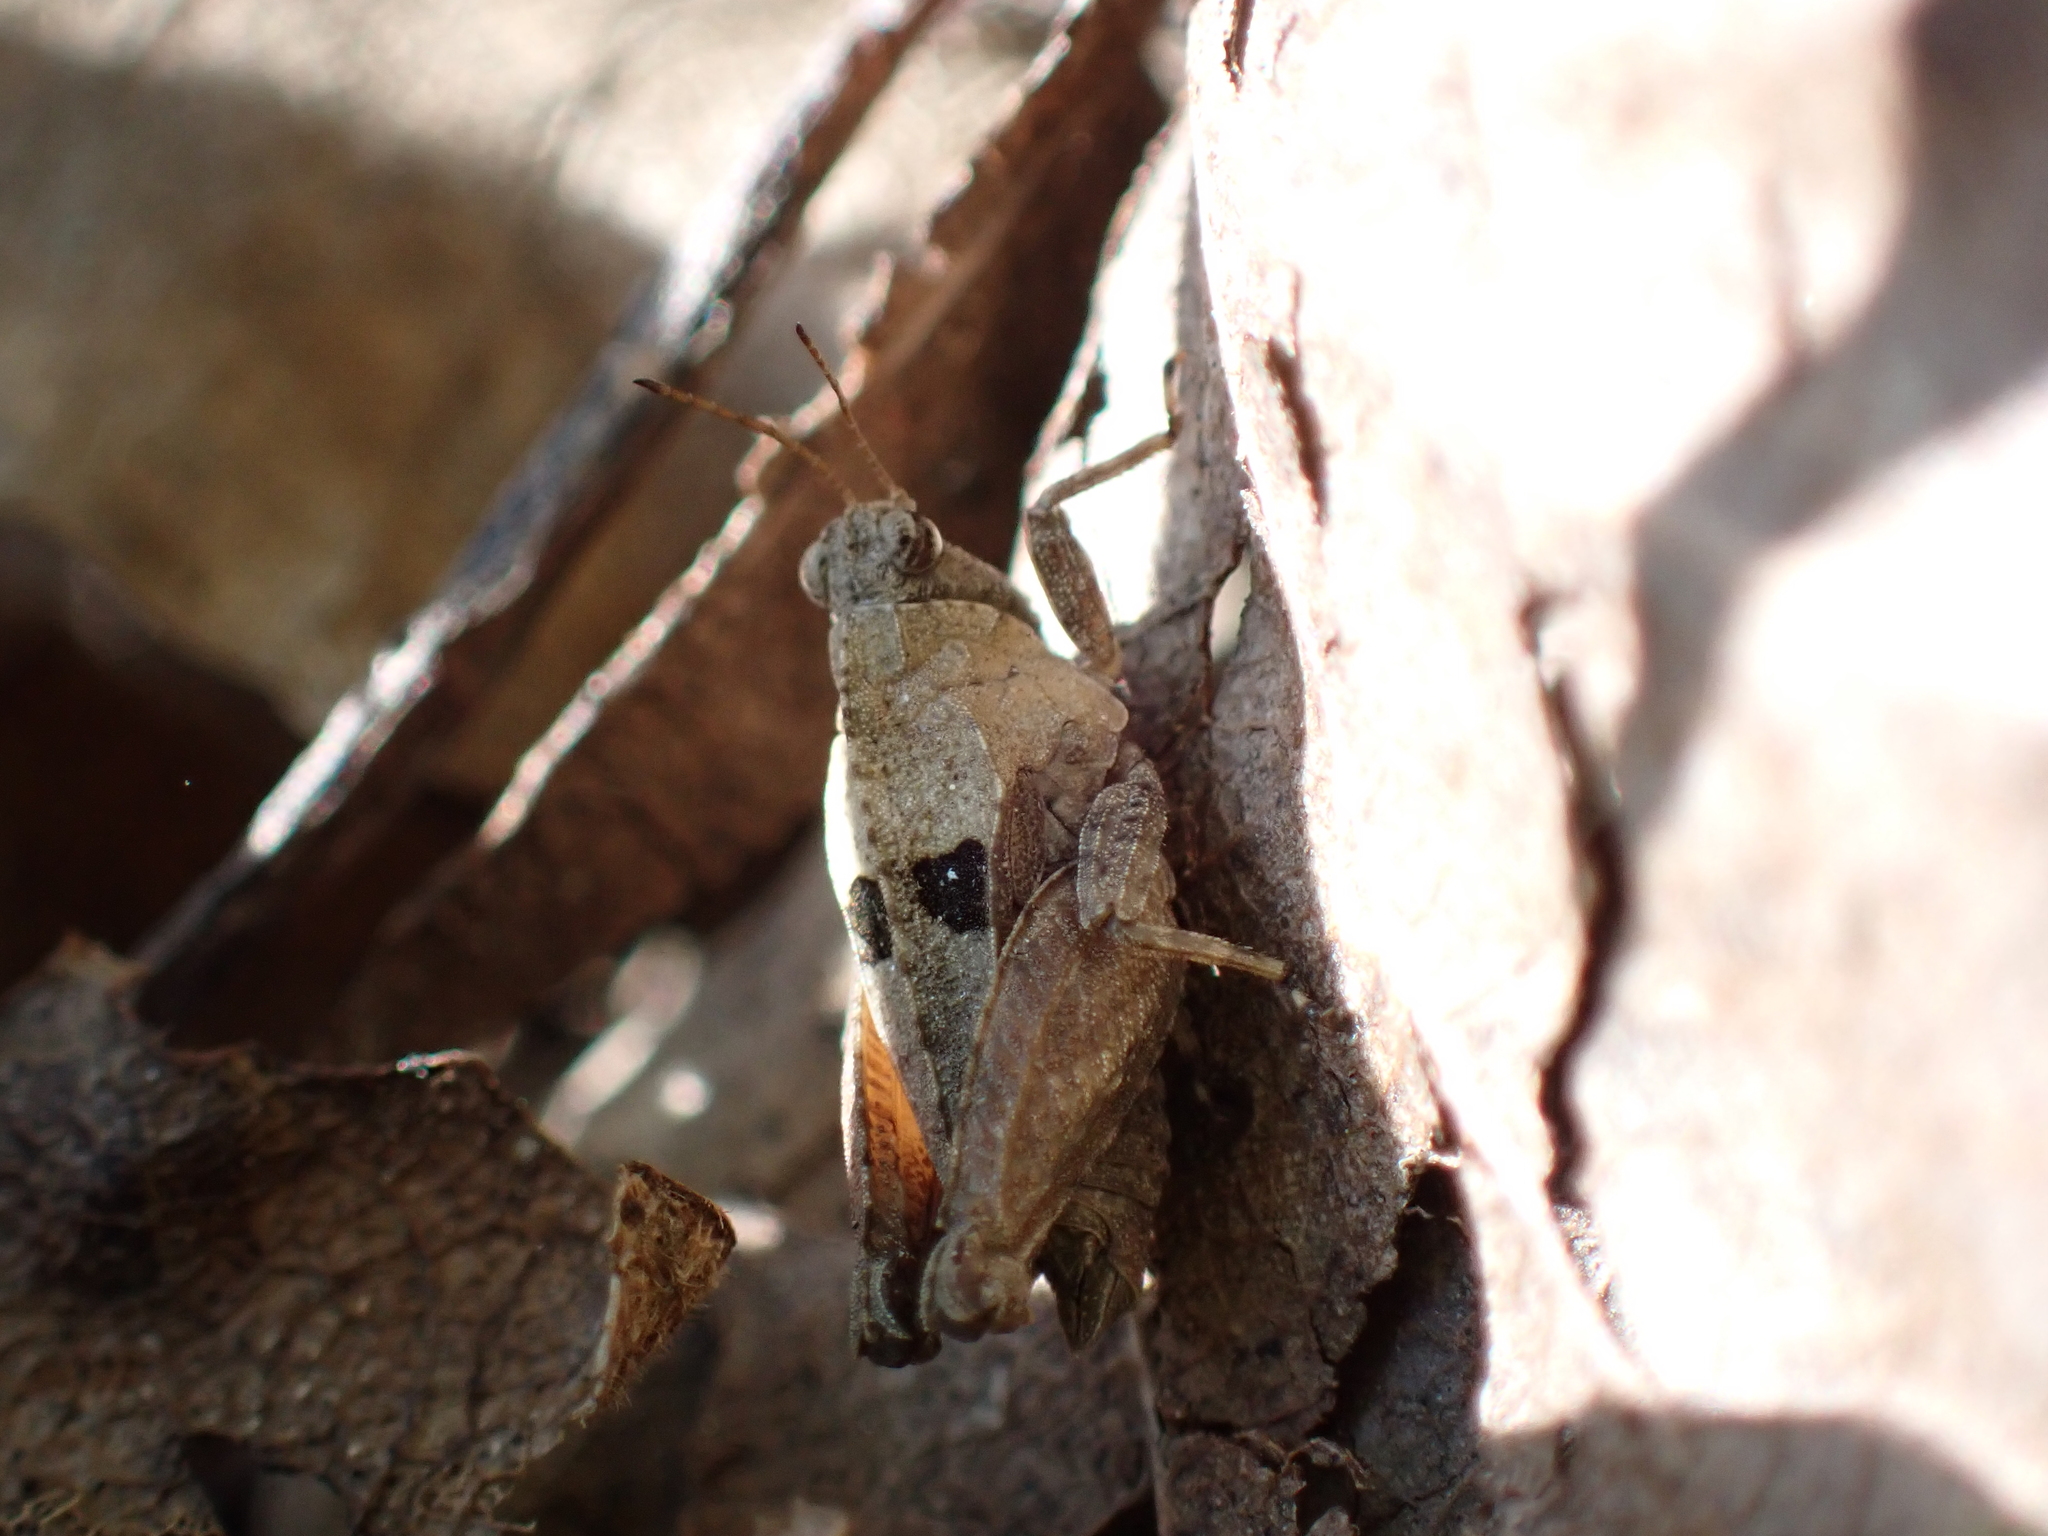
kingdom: Animalia
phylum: Arthropoda
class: Insecta
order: Orthoptera
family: Tetrigidae
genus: Tetrix
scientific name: Tetrix tenuicornis
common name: Long-horned groundhopper
